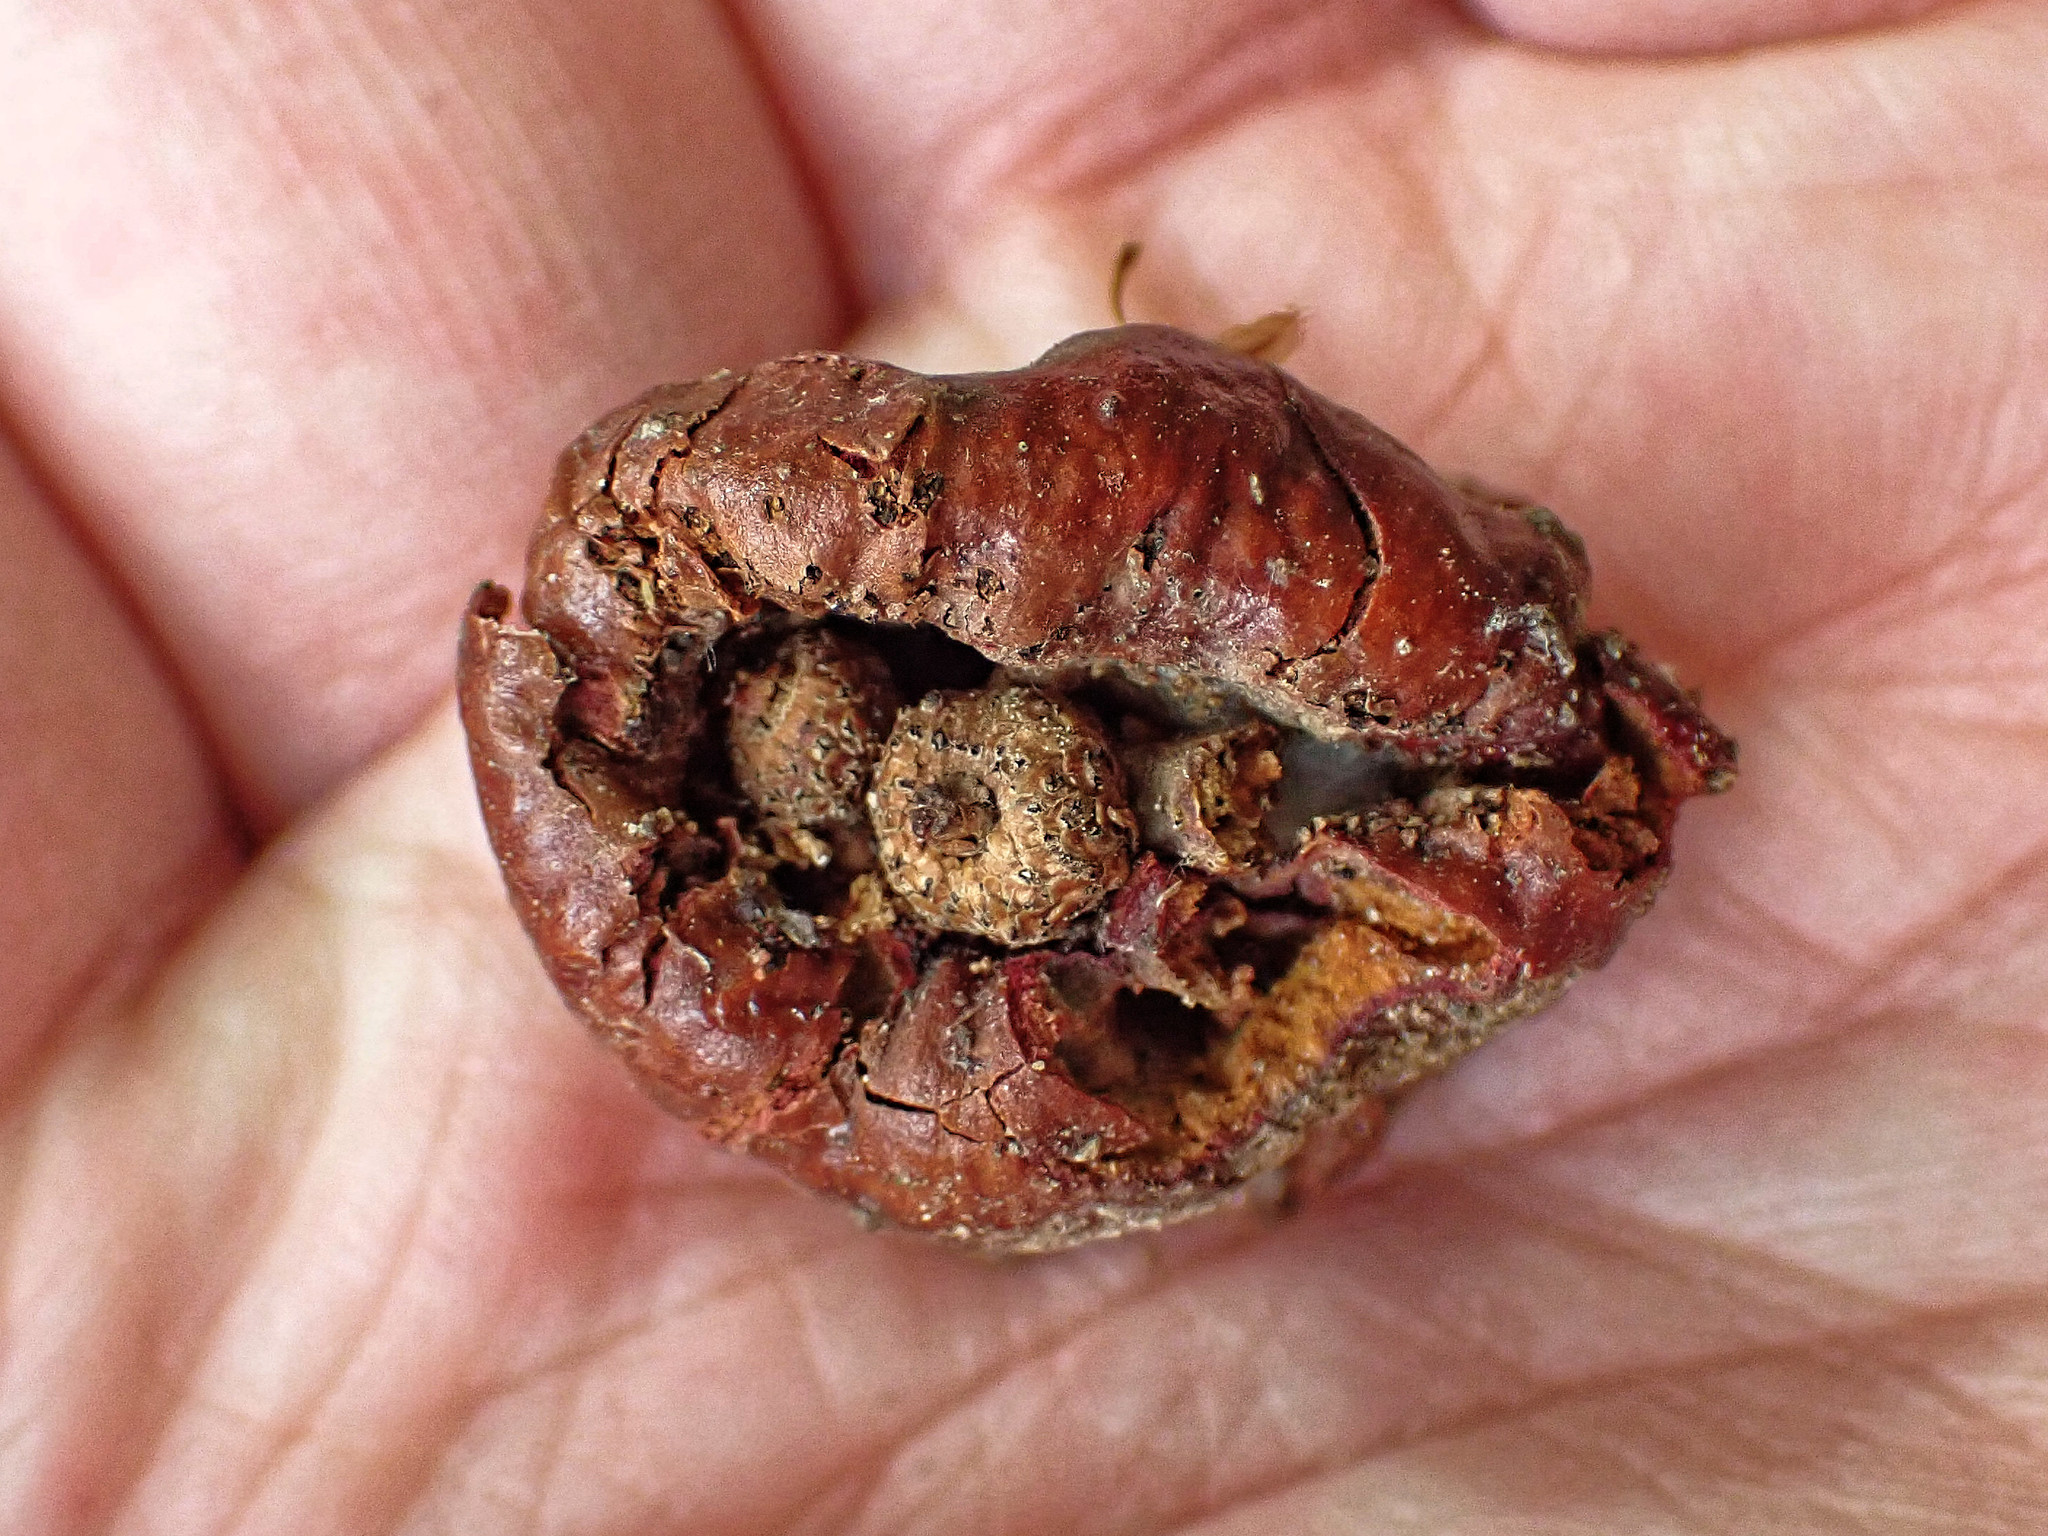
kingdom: Animalia
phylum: Arthropoda
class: Insecta
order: Hymenoptera
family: Cynipidae
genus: Andricus
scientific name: Andricus dentimitratus
